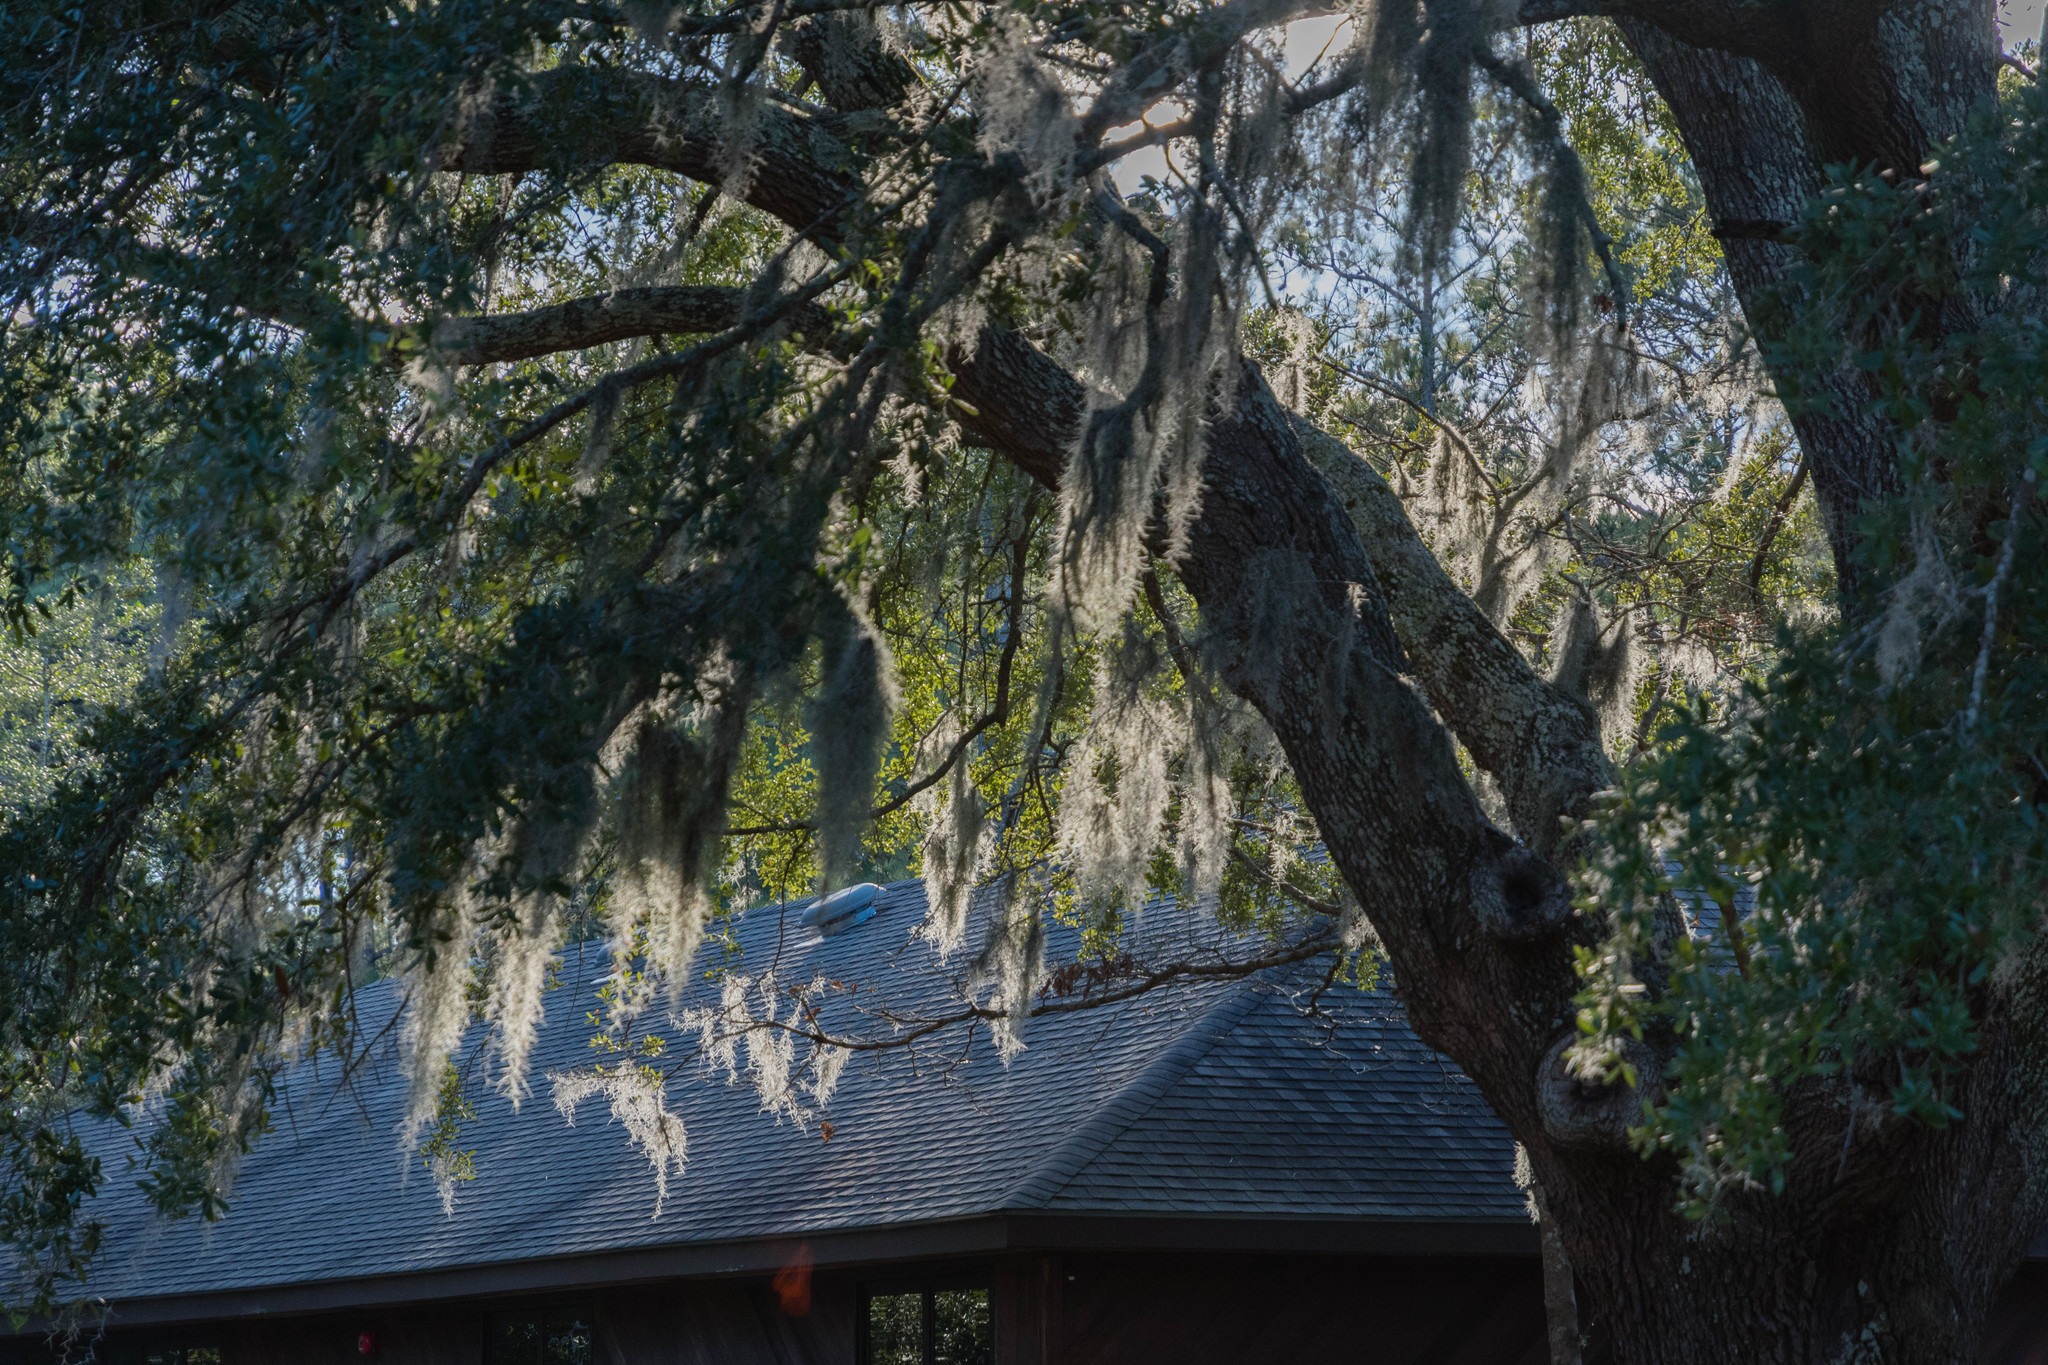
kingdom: Plantae
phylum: Tracheophyta
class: Liliopsida
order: Poales
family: Bromeliaceae
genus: Tillandsia
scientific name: Tillandsia usneoides
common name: Spanish moss
